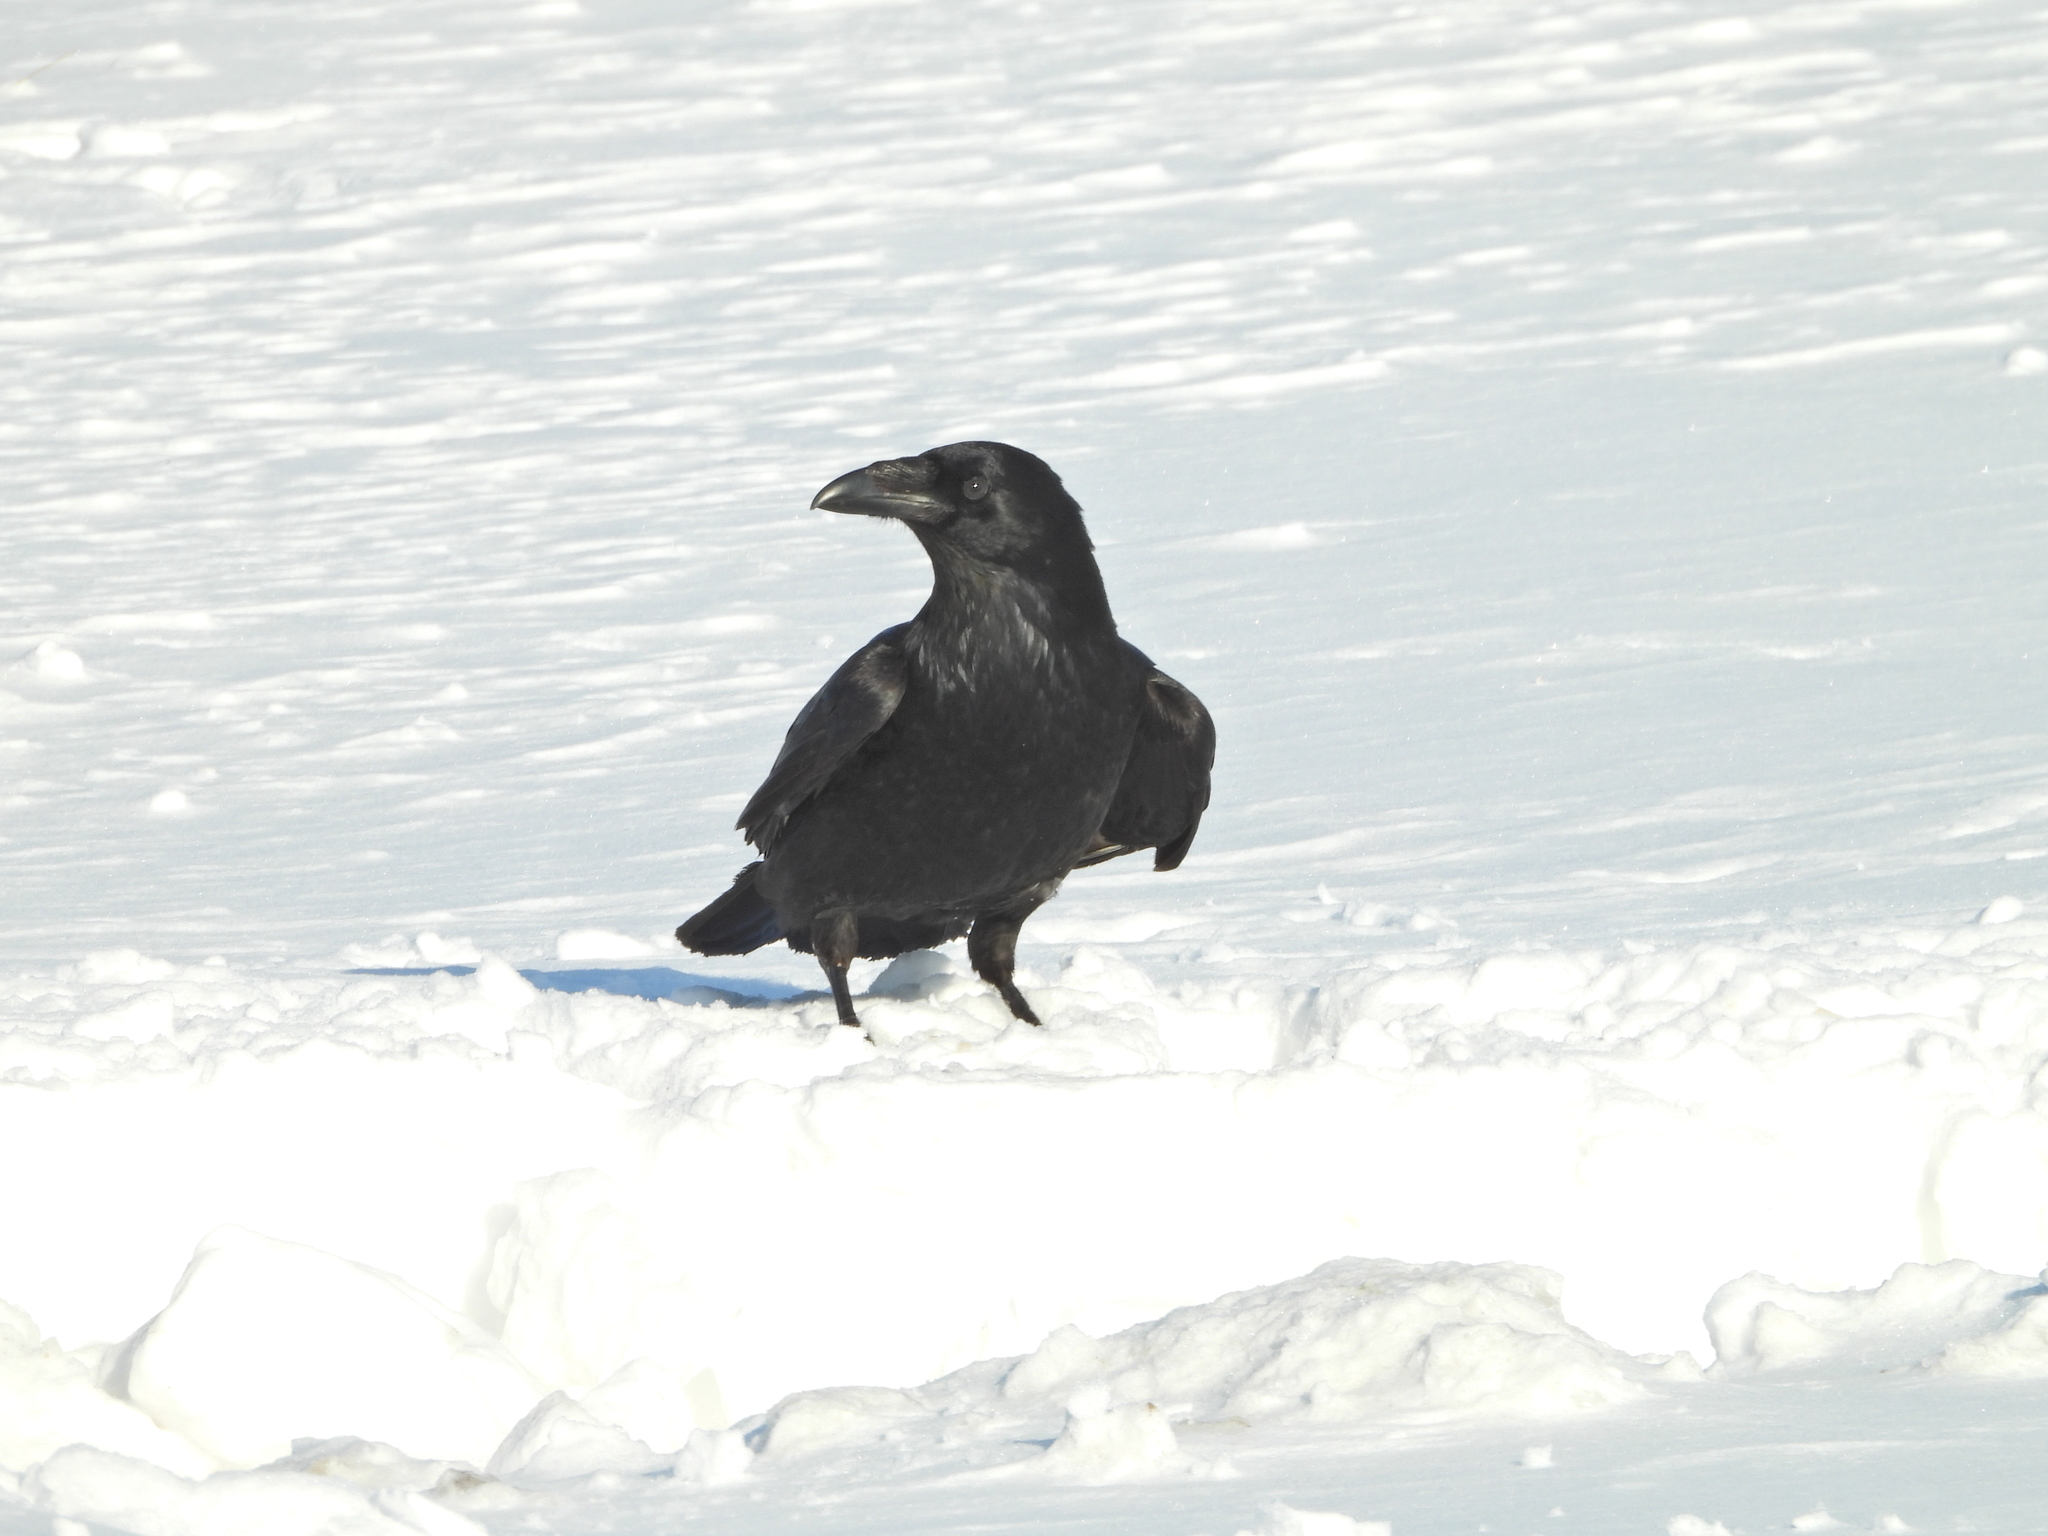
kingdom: Animalia
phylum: Chordata
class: Aves
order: Passeriformes
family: Corvidae
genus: Corvus
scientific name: Corvus corax
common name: Common raven
